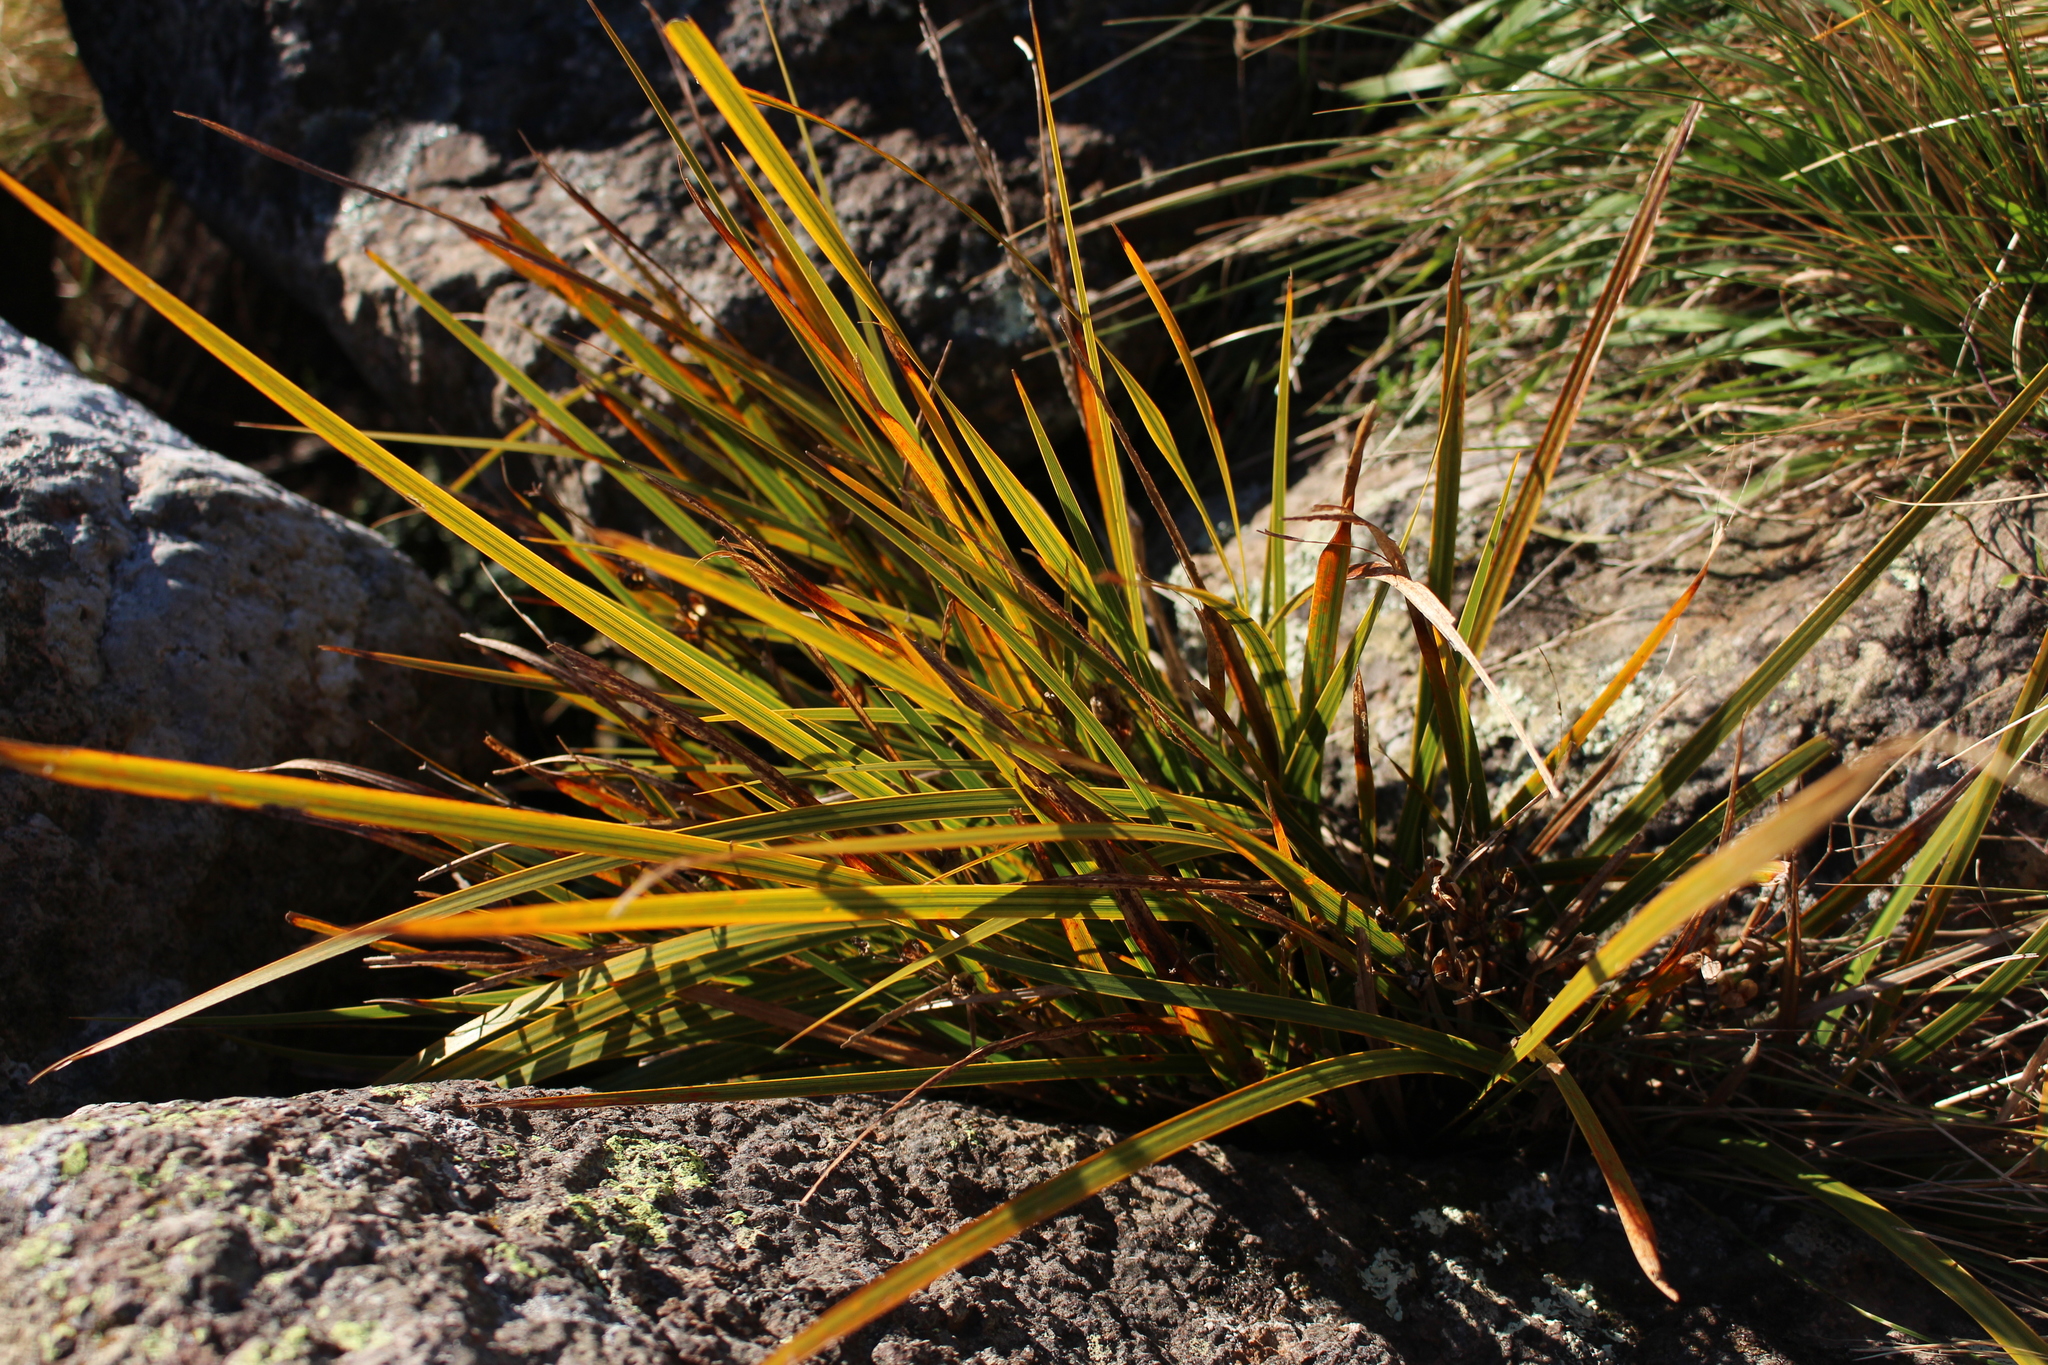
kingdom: Plantae
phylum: Tracheophyta
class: Liliopsida
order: Asparagales
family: Iridaceae
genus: Libertia
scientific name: Libertia ixioides
